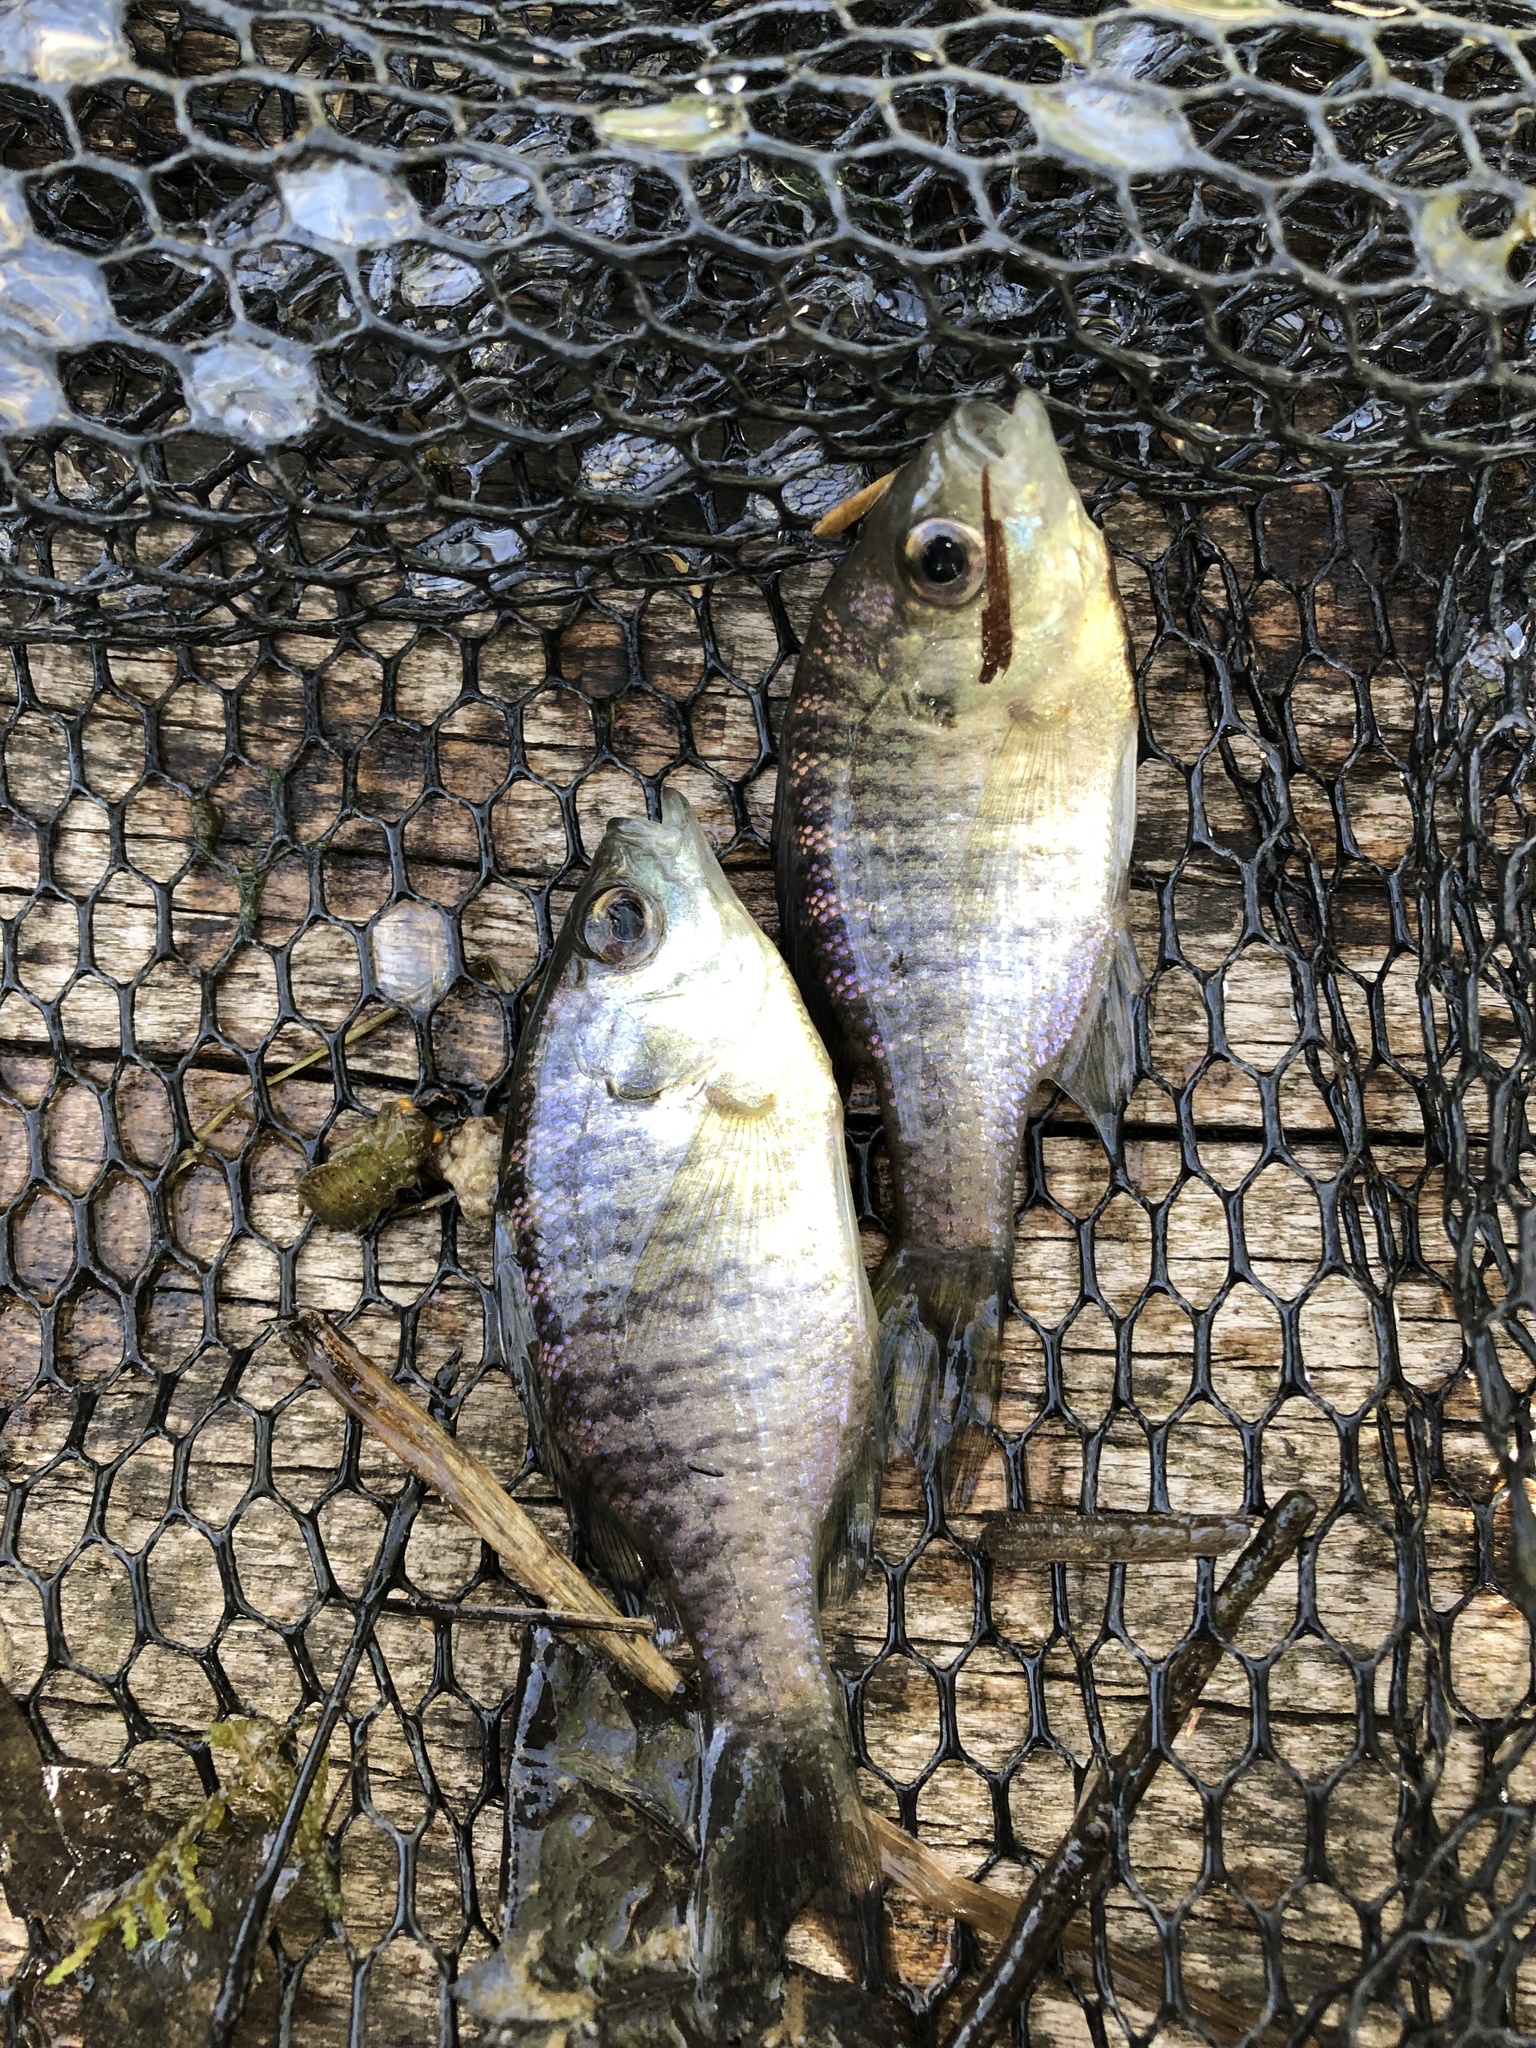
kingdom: Animalia
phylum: Chordata
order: Perciformes
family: Centrarchidae
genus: Lepomis
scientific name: Lepomis macrochirus
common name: Bluegill
